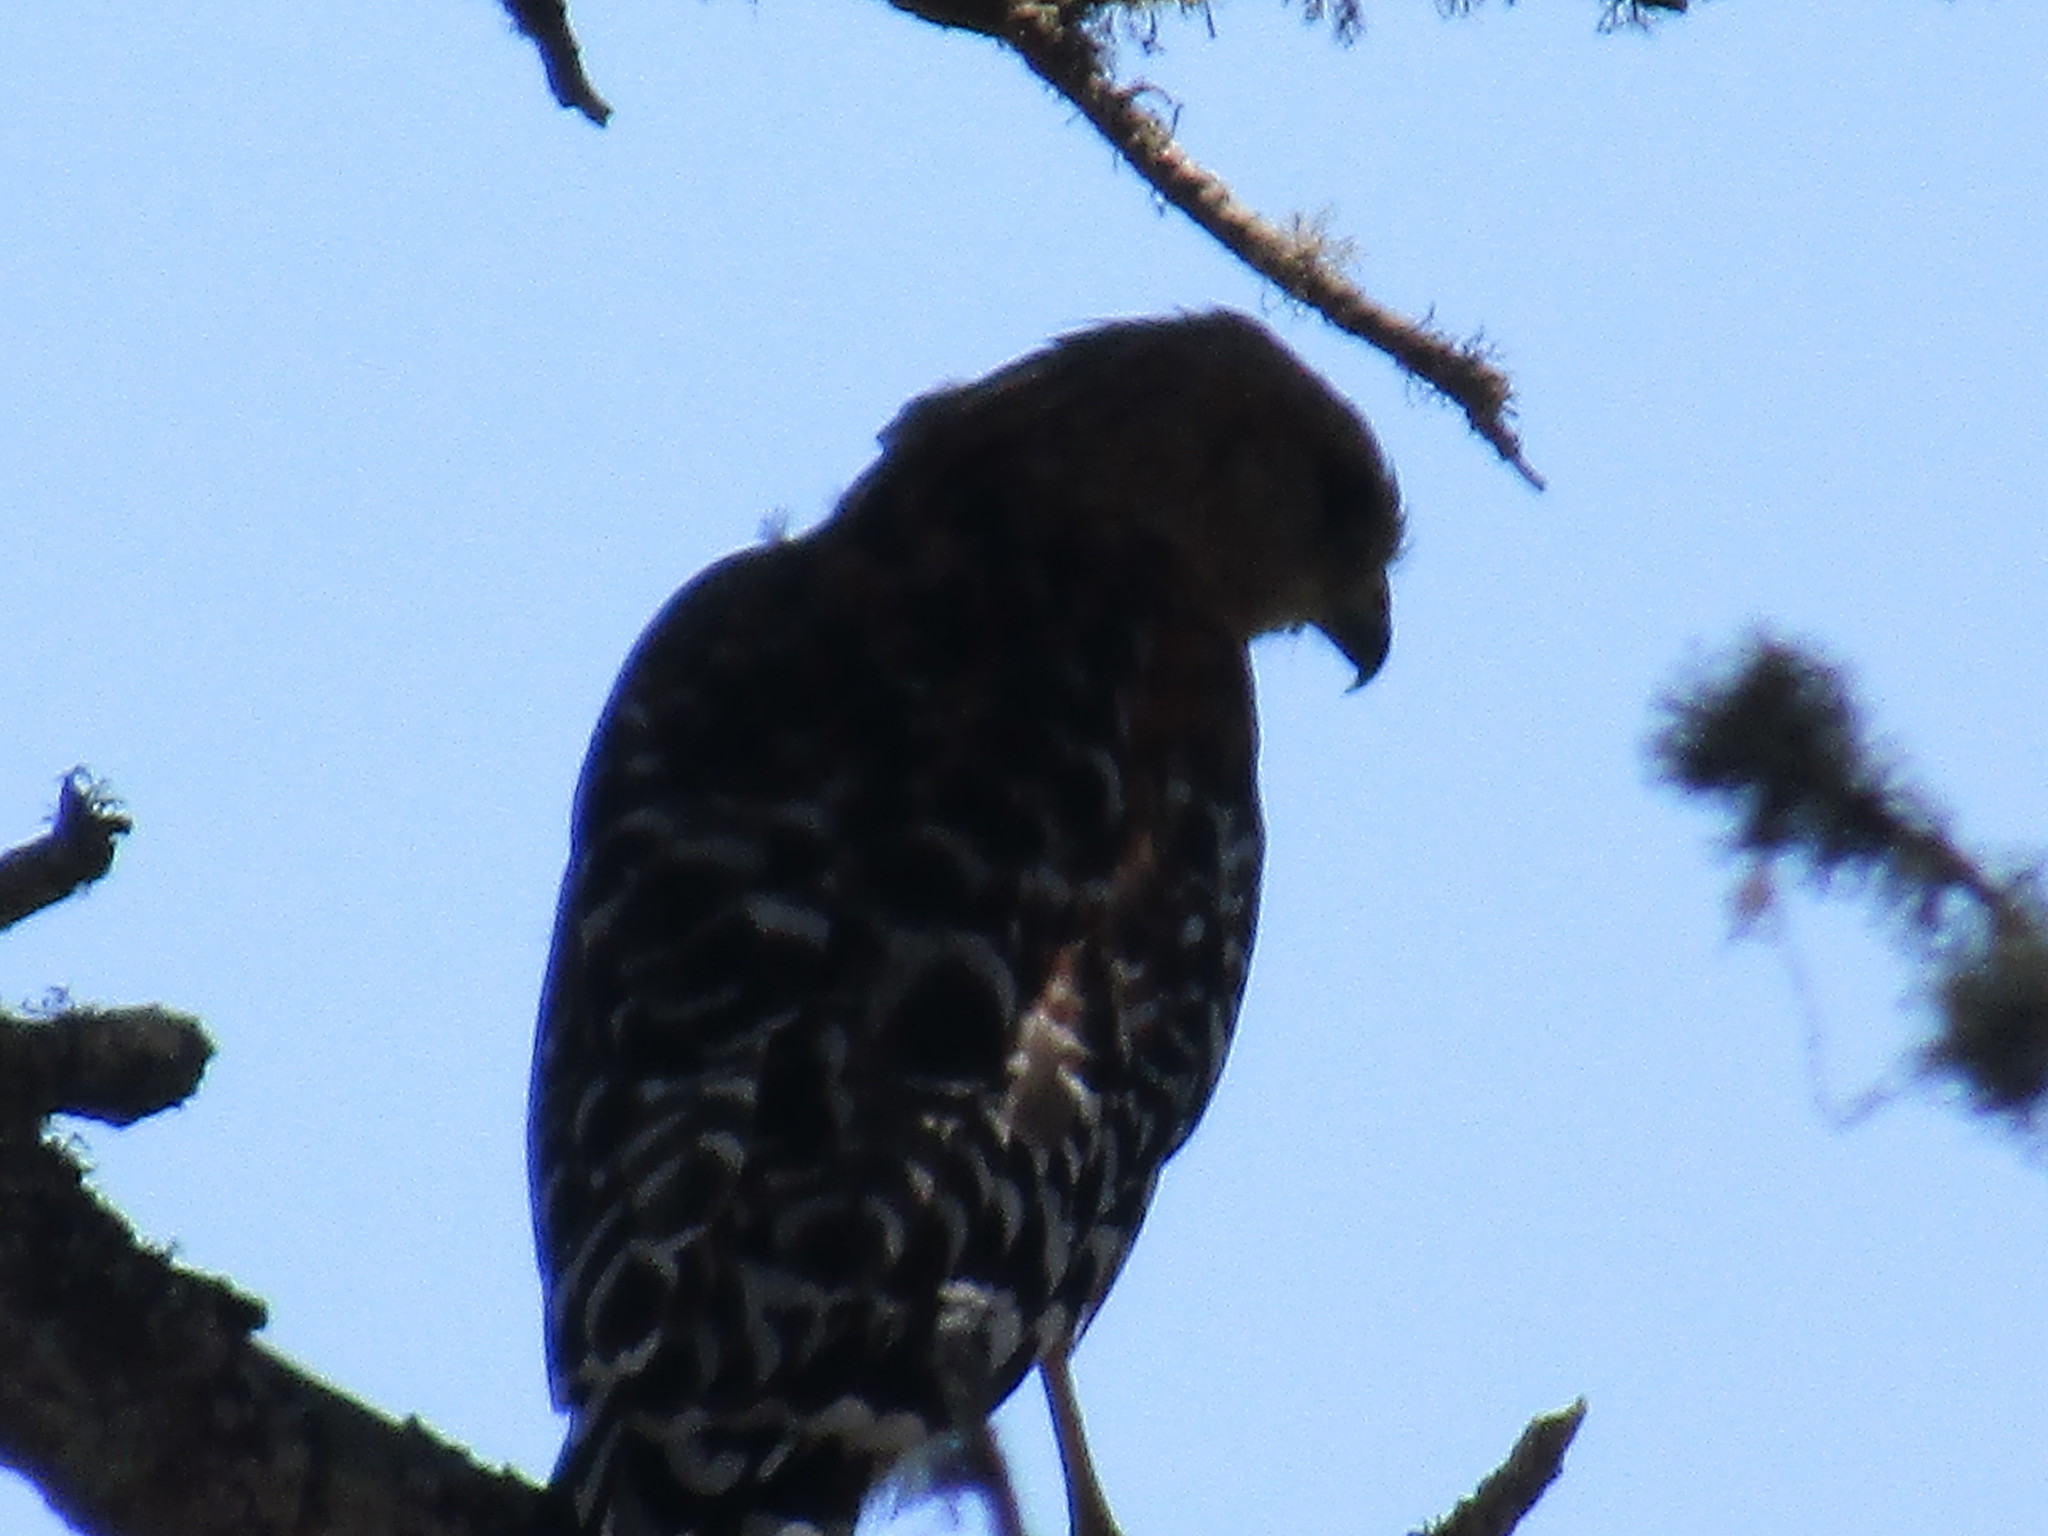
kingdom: Animalia
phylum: Chordata
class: Aves
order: Accipitriformes
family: Accipitridae
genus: Buteo
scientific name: Buteo lineatus
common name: Red-shouldered hawk
